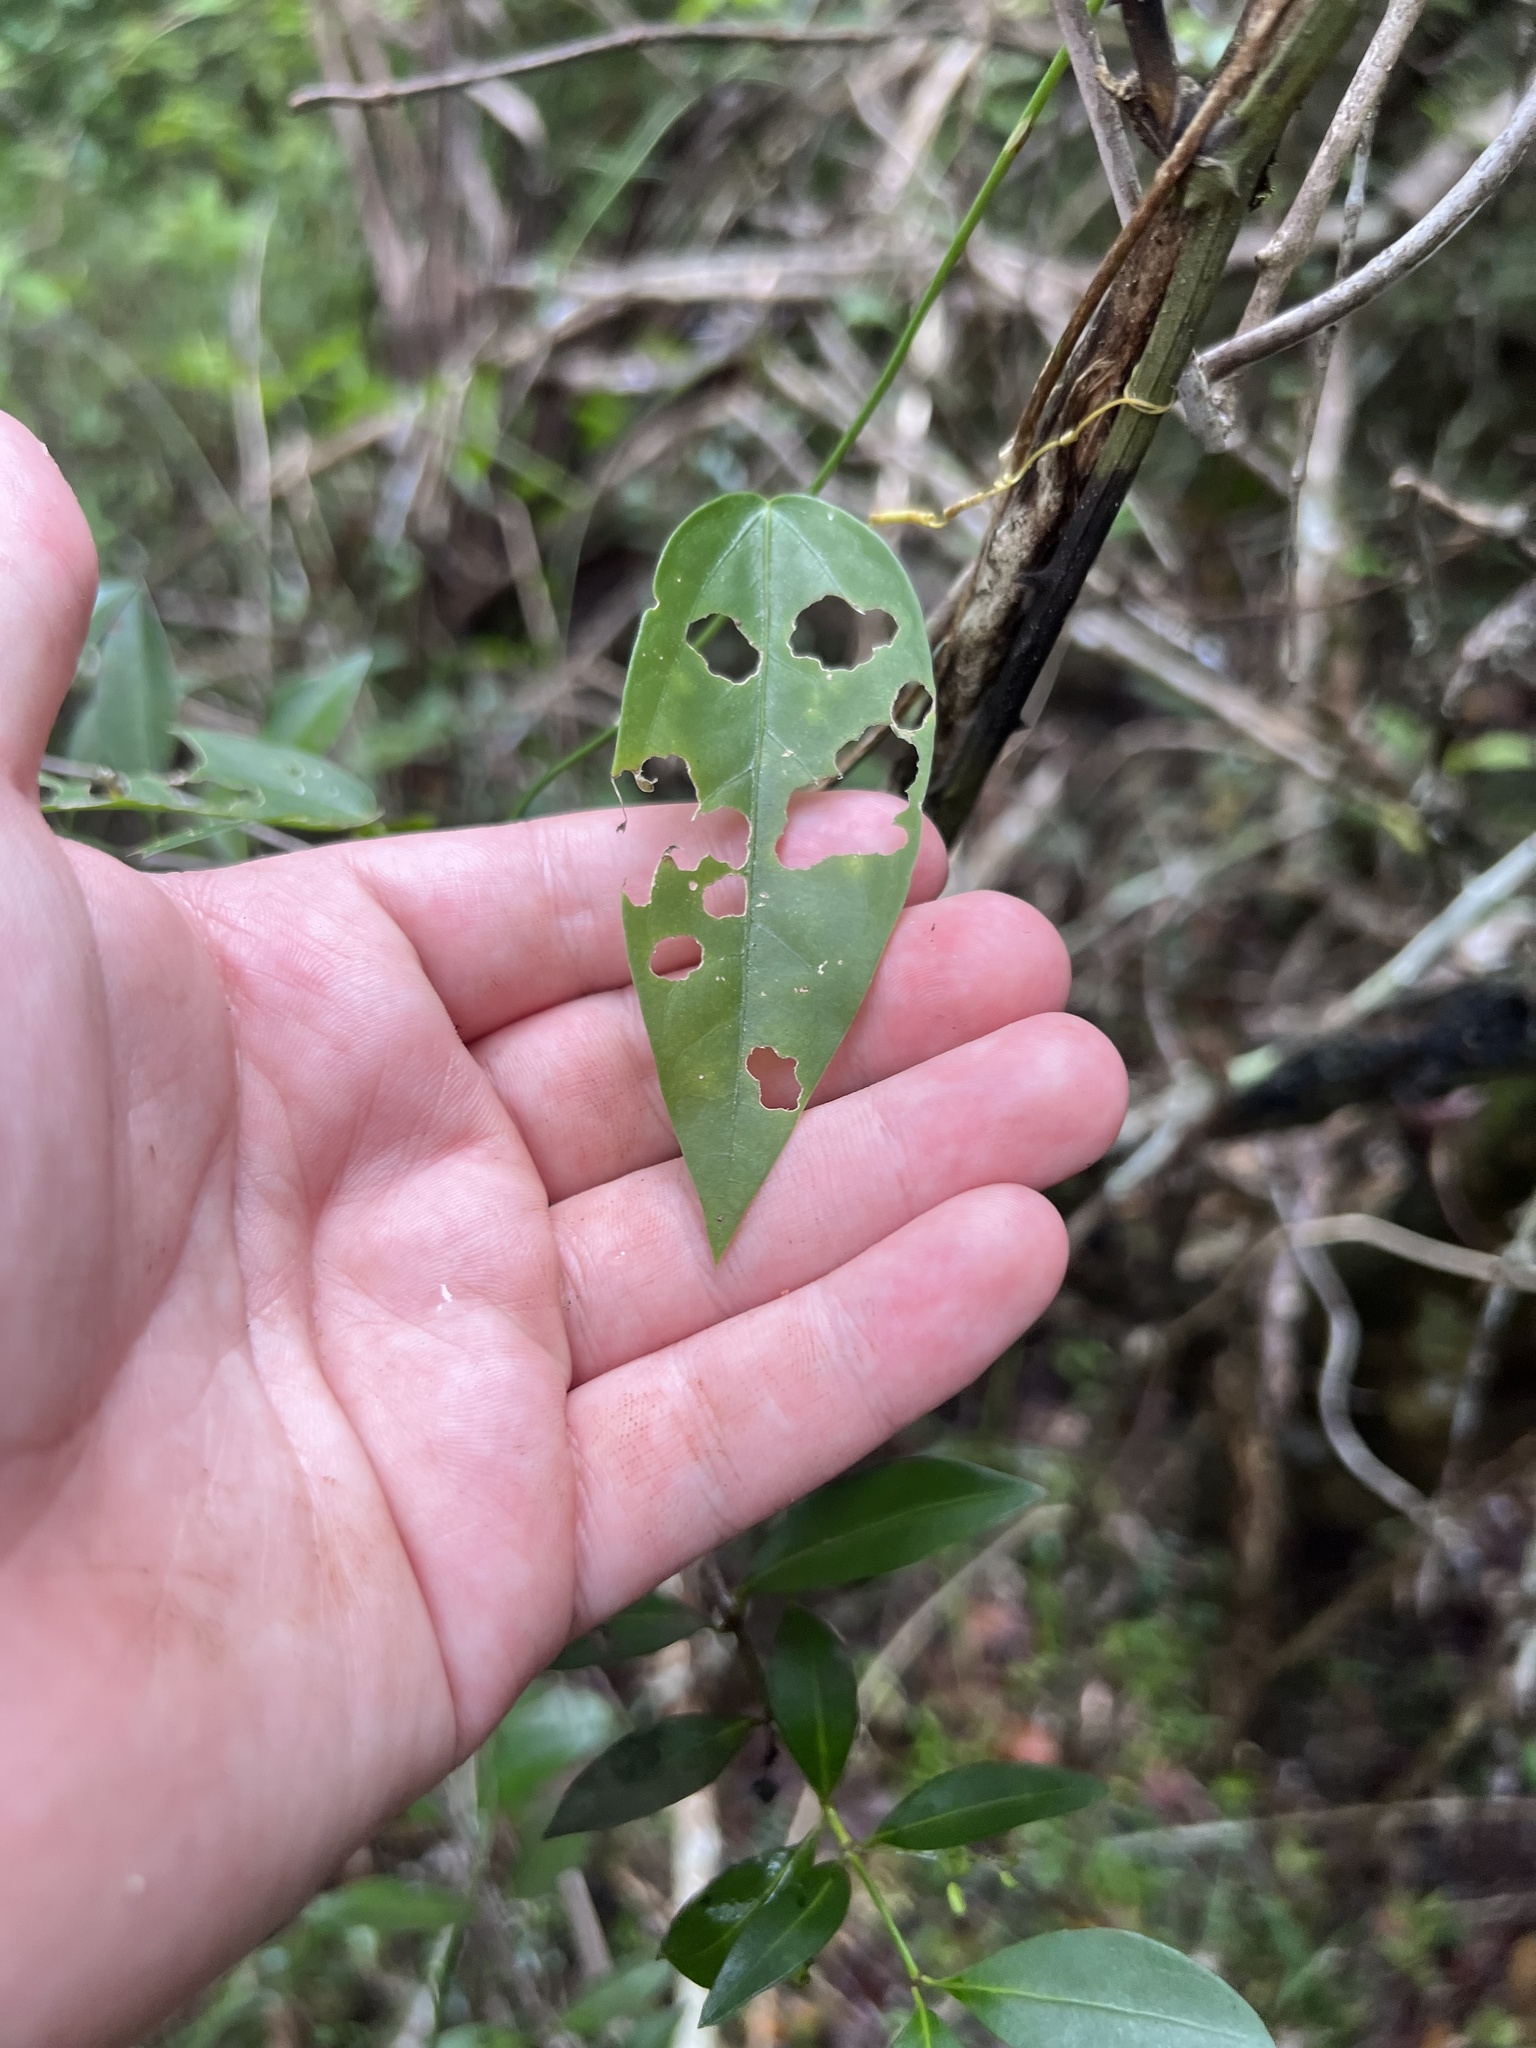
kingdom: Plantae
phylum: Tracheophyta
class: Magnoliopsida
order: Malpighiales
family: Passifloraceae
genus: Passiflora
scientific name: Passiflora pallida
